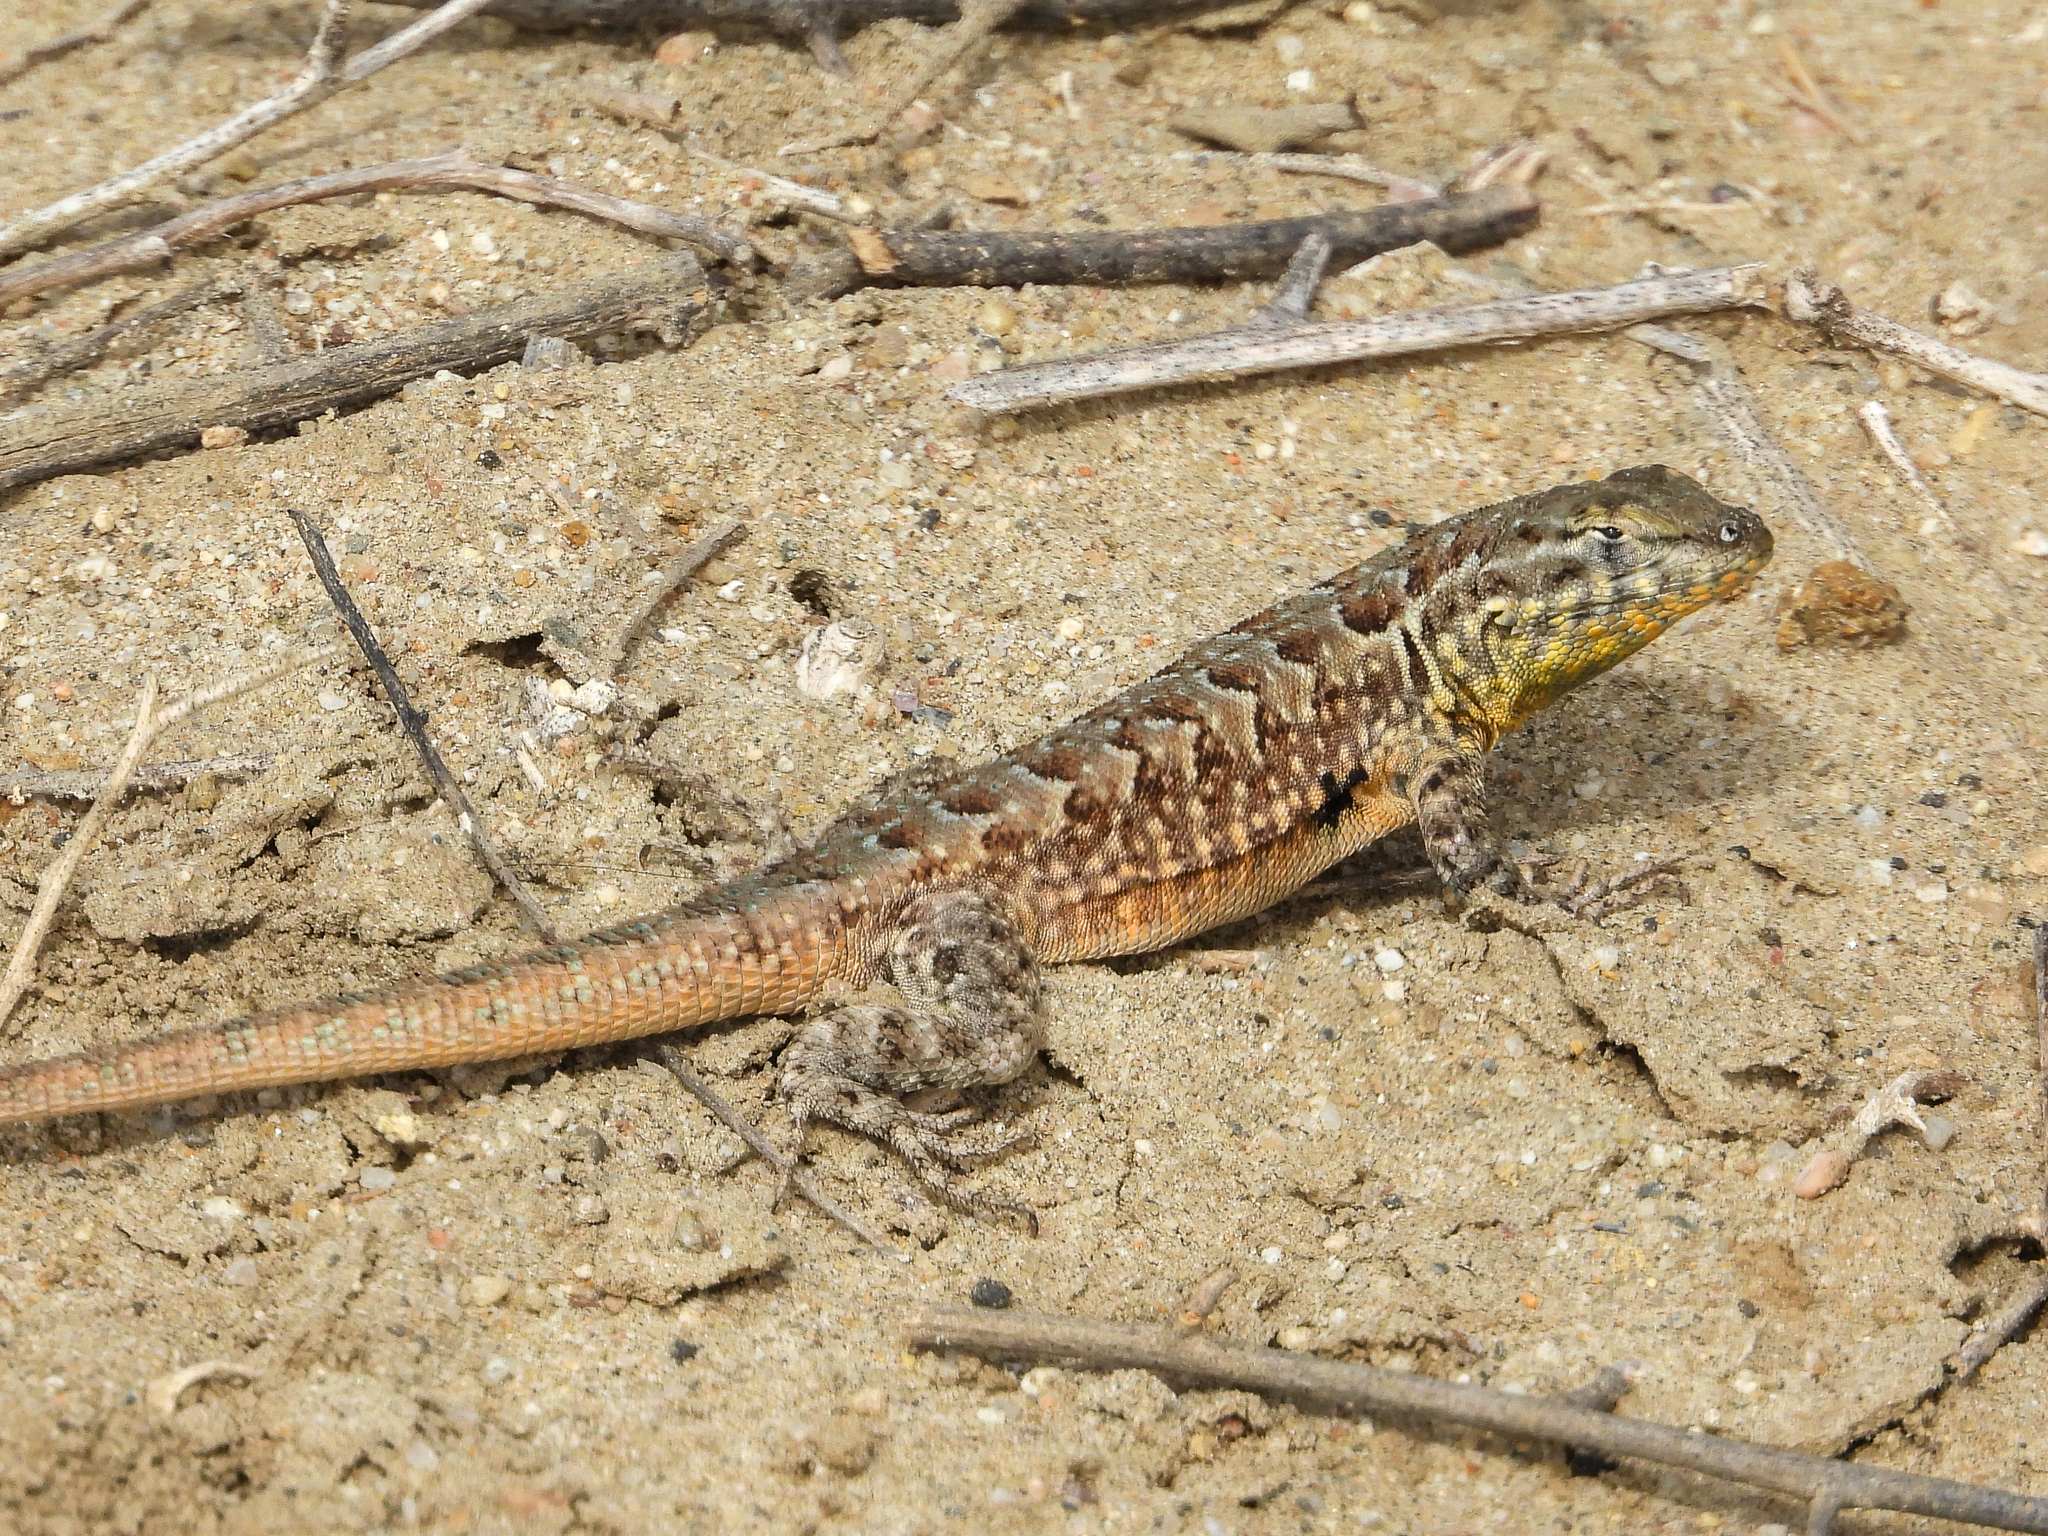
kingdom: Animalia
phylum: Chordata
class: Squamata
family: Phrynosomatidae
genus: Uta
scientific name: Uta stansburiana
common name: Side-blotched lizard
